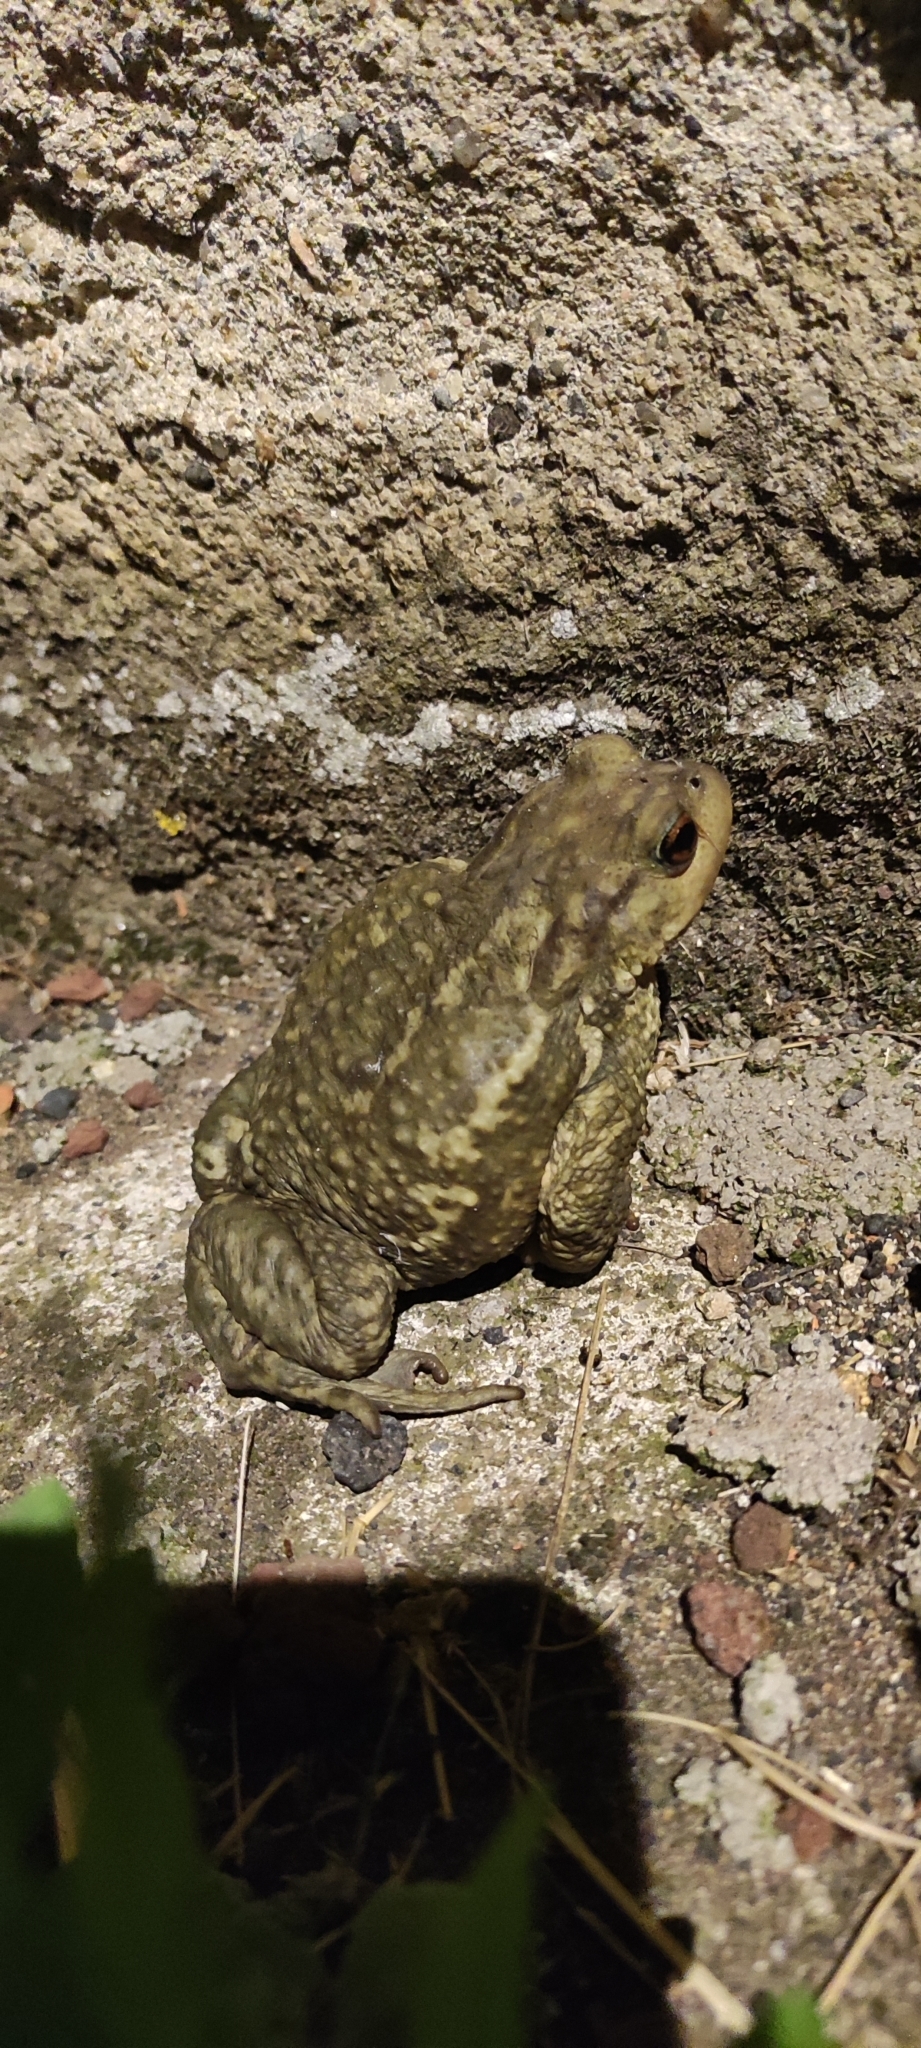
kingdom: Animalia
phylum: Chordata
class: Amphibia
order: Anura
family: Bufonidae
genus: Bufo
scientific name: Bufo spinosus
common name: Western common toad
